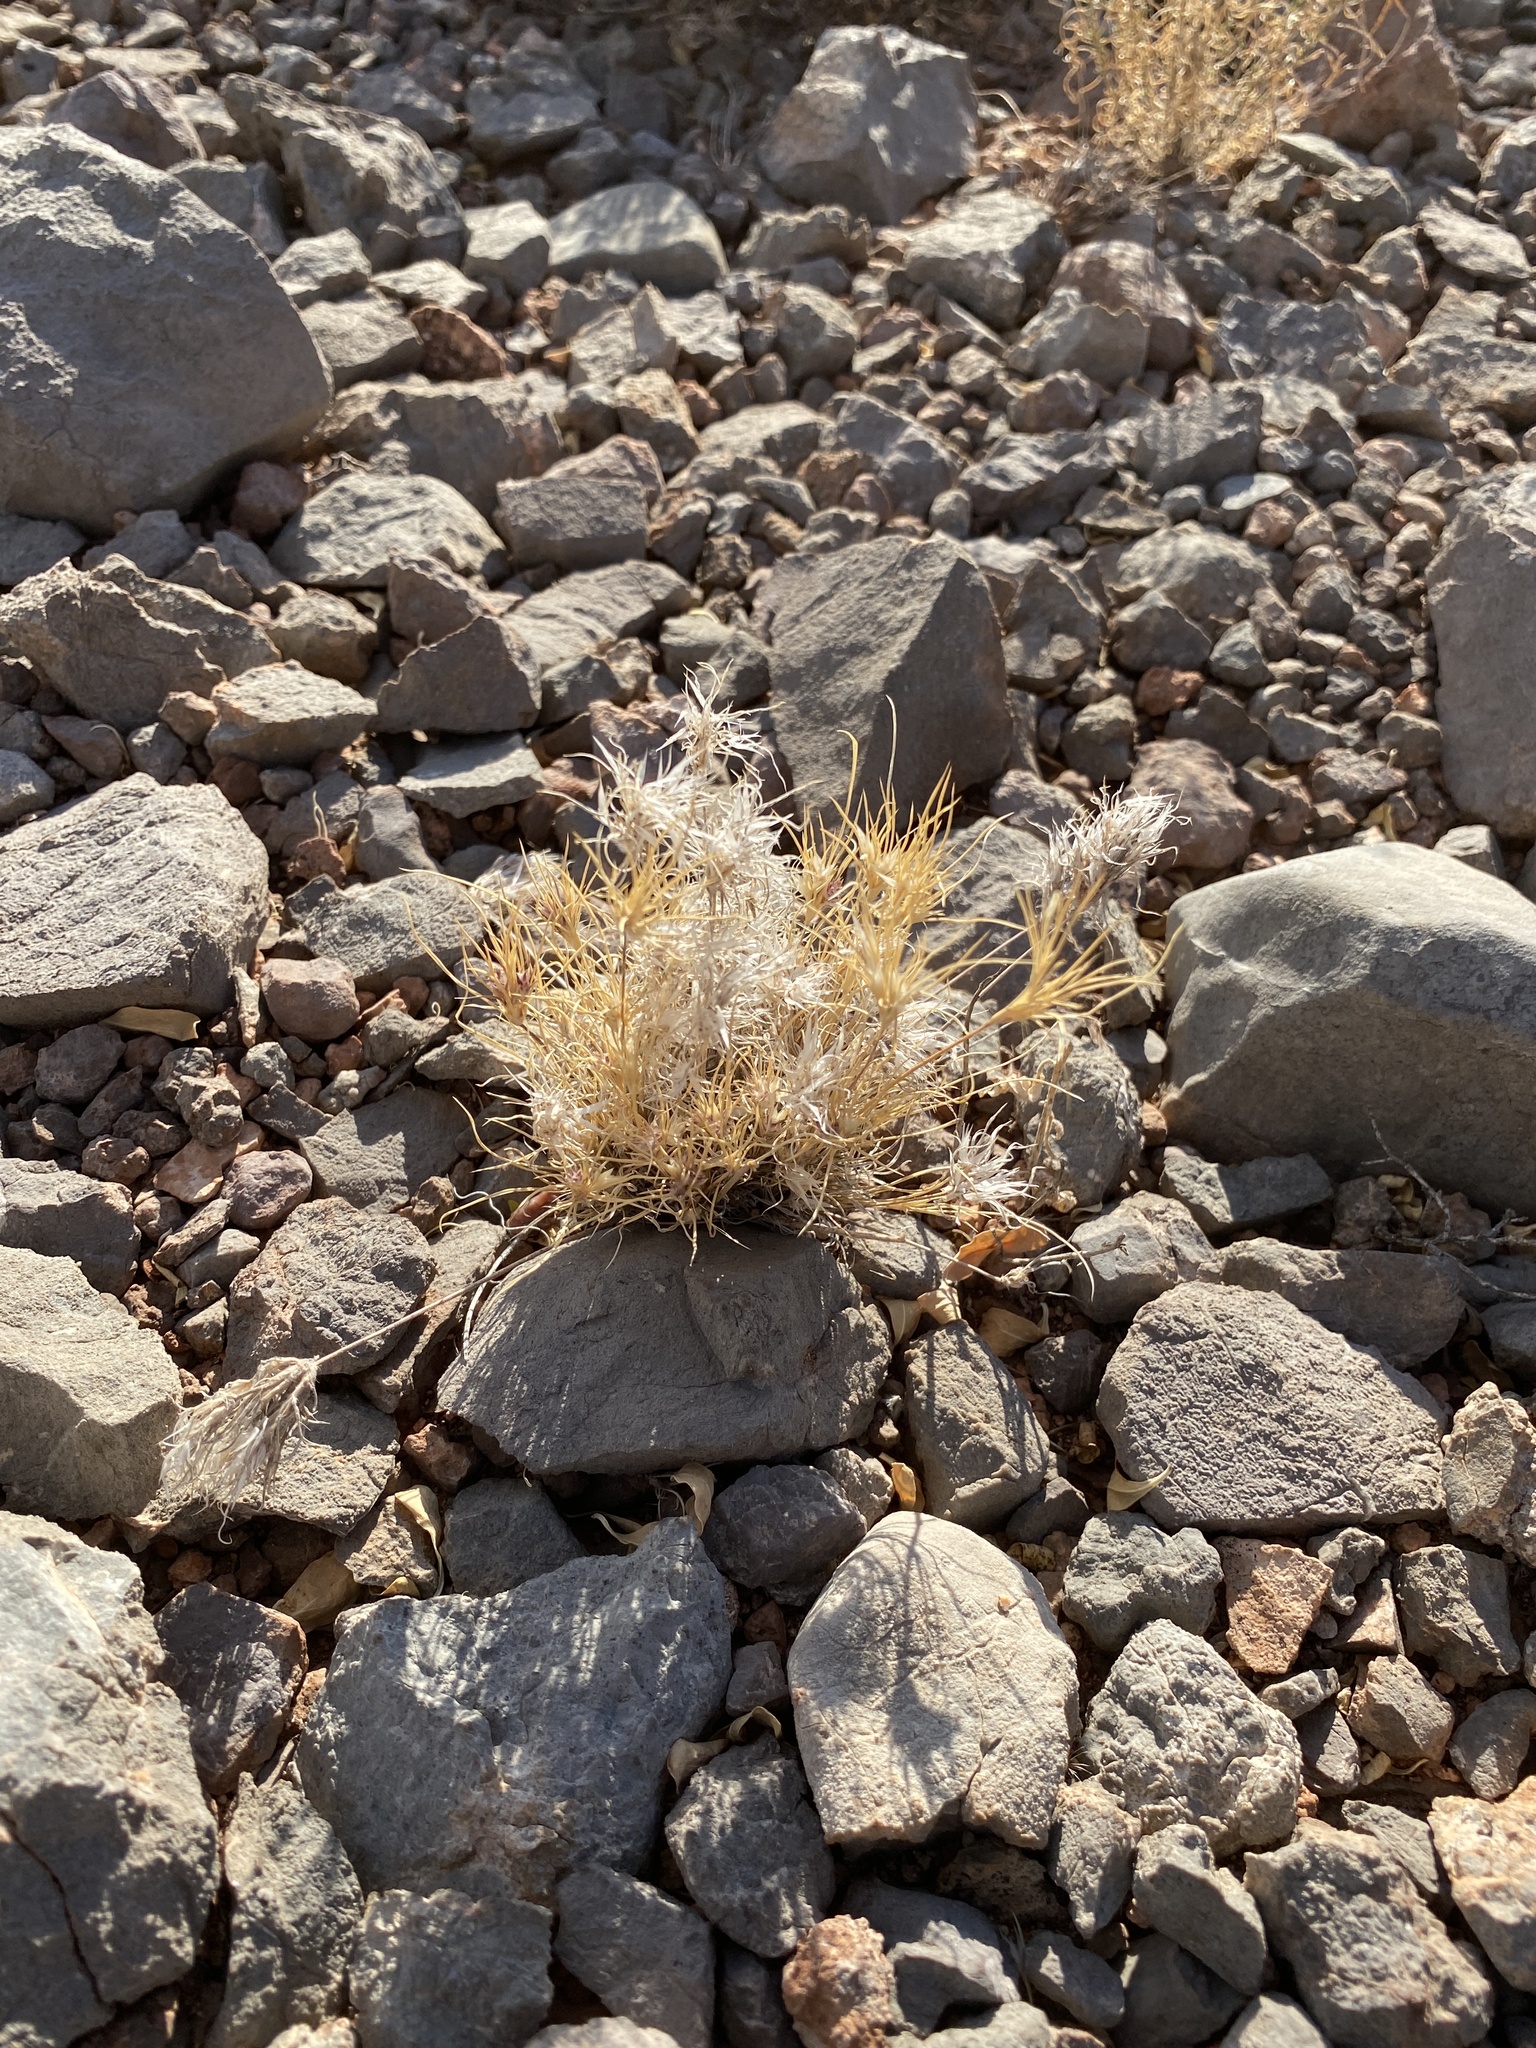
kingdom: Plantae
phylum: Tracheophyta
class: Liliopsida
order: Poales
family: Poaceae
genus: Dasyochloa
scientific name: Dasyochloa pulchella
